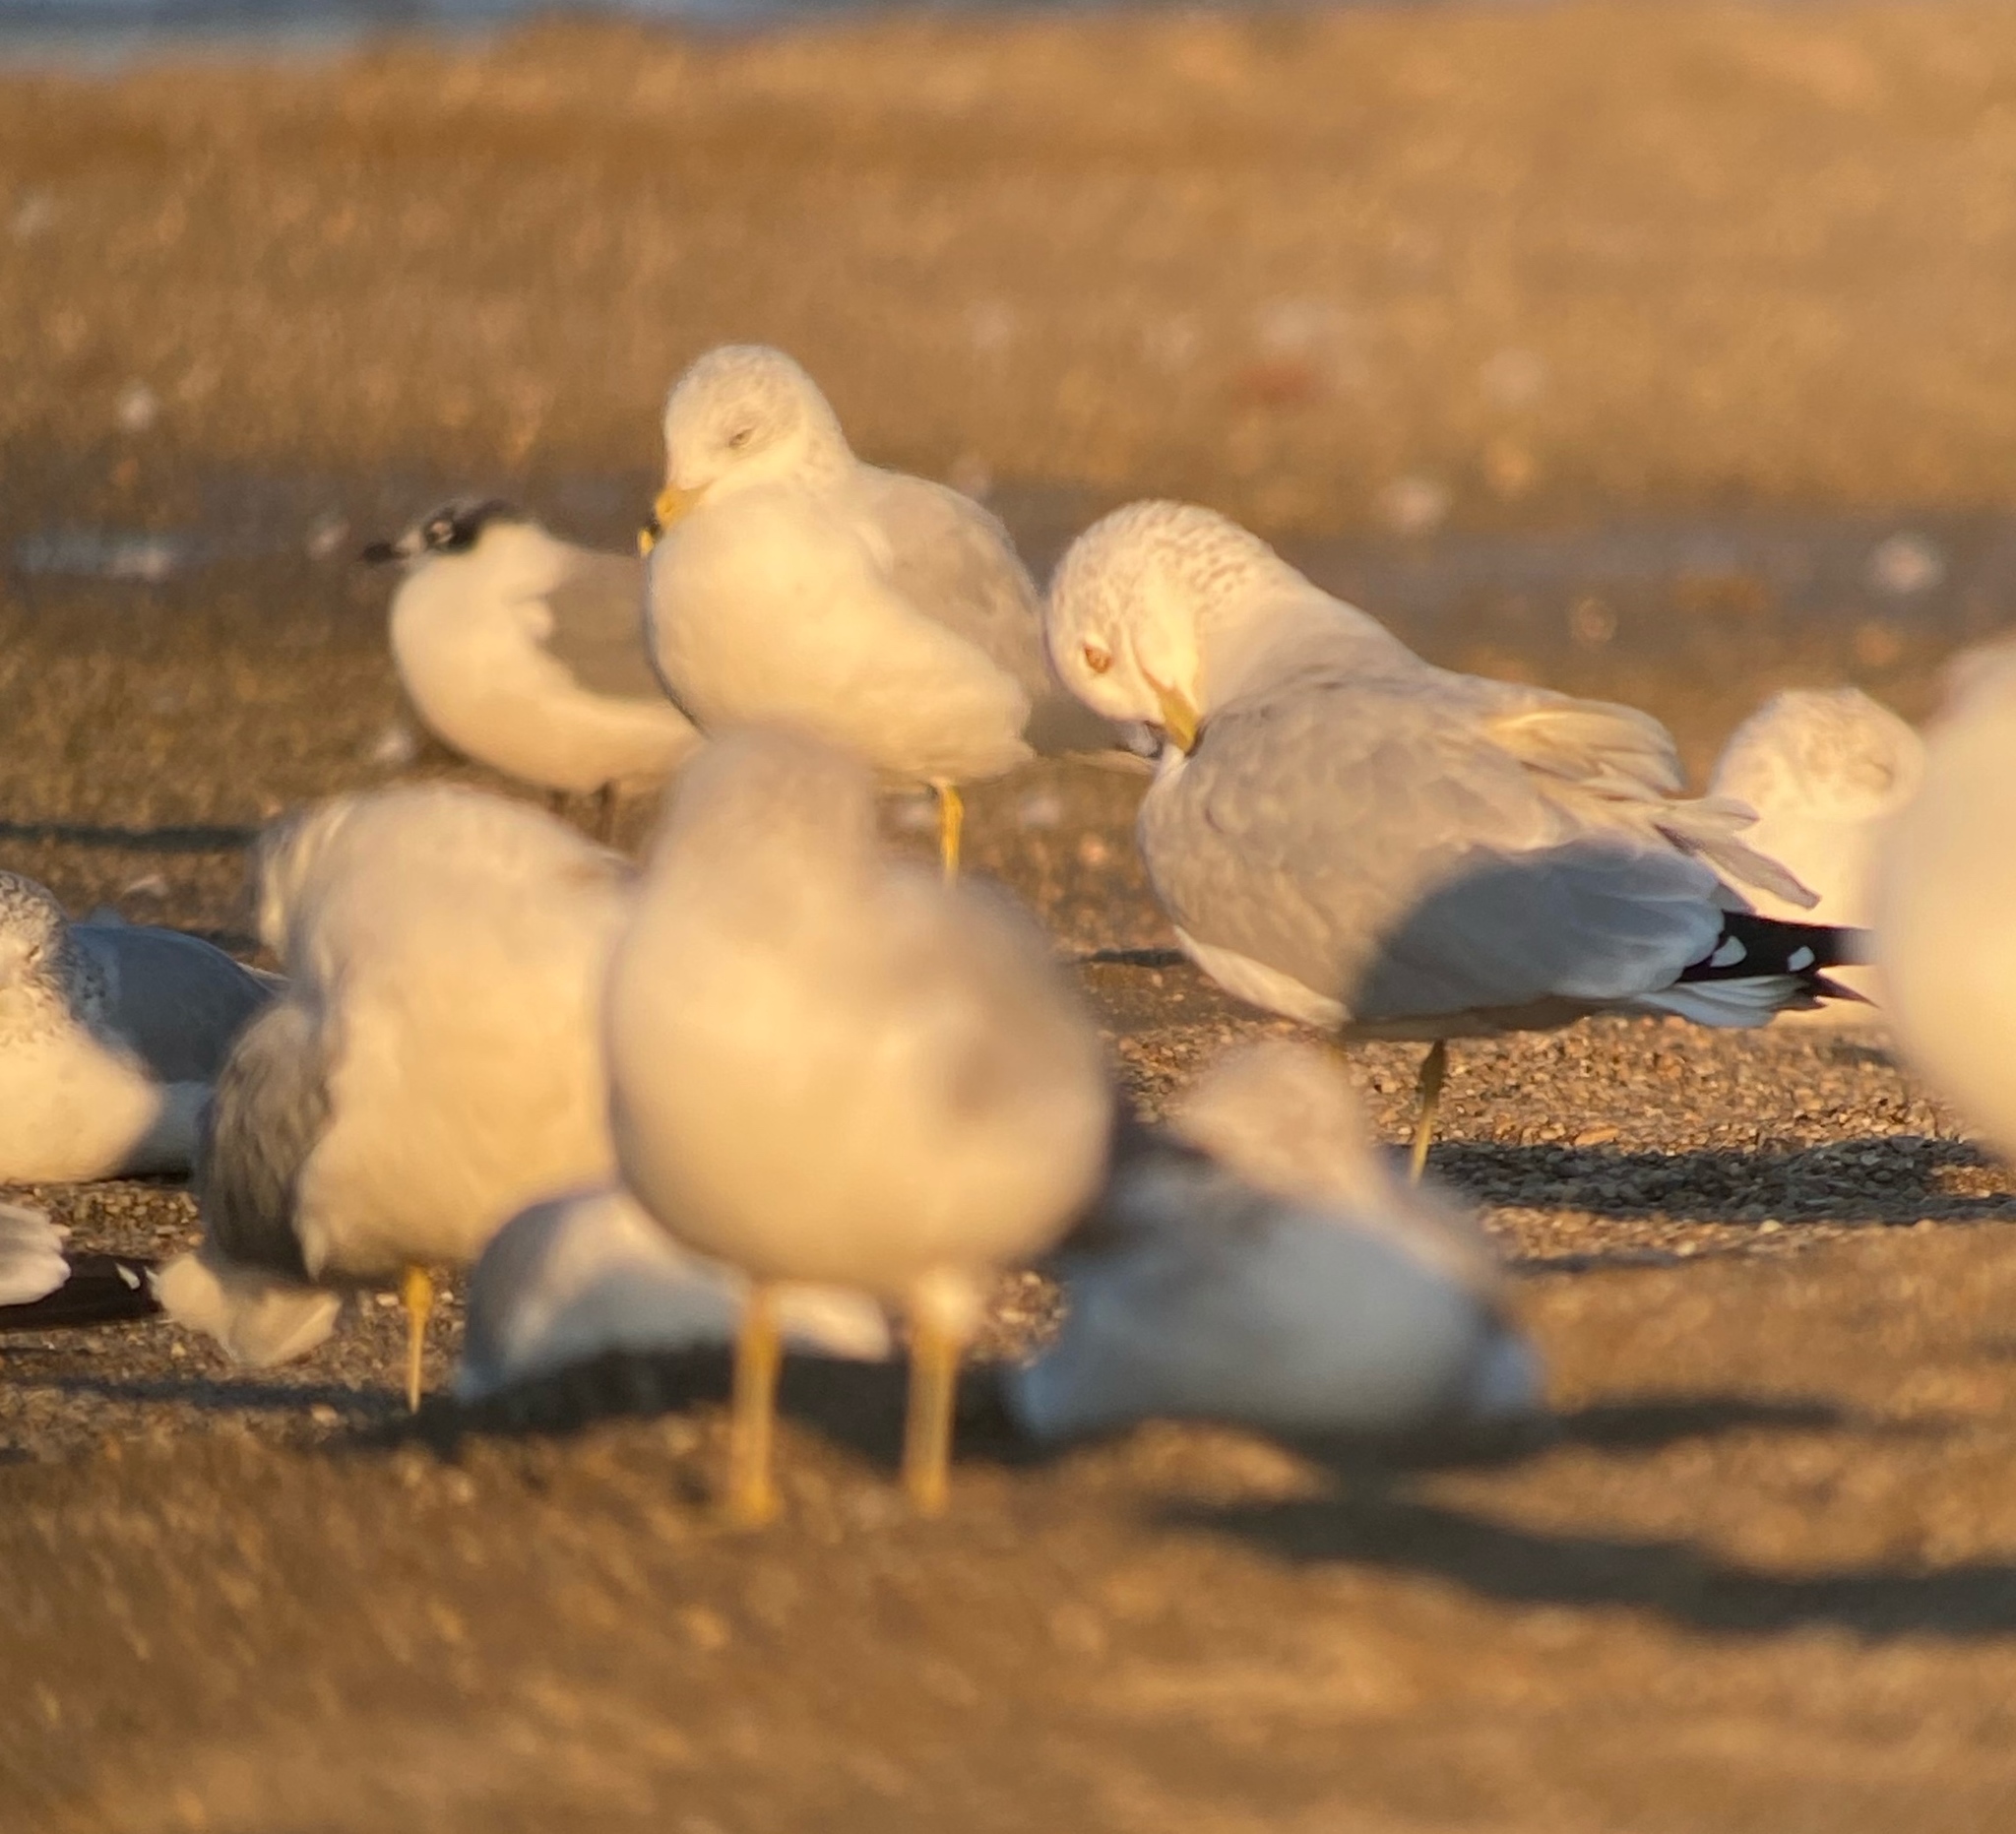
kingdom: Animalia
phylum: Chordata
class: Aves
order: Charadriiformes
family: Laridae
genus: Leucophaeus
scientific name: Leucophaeus pipixcan
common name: Franklin's gull
